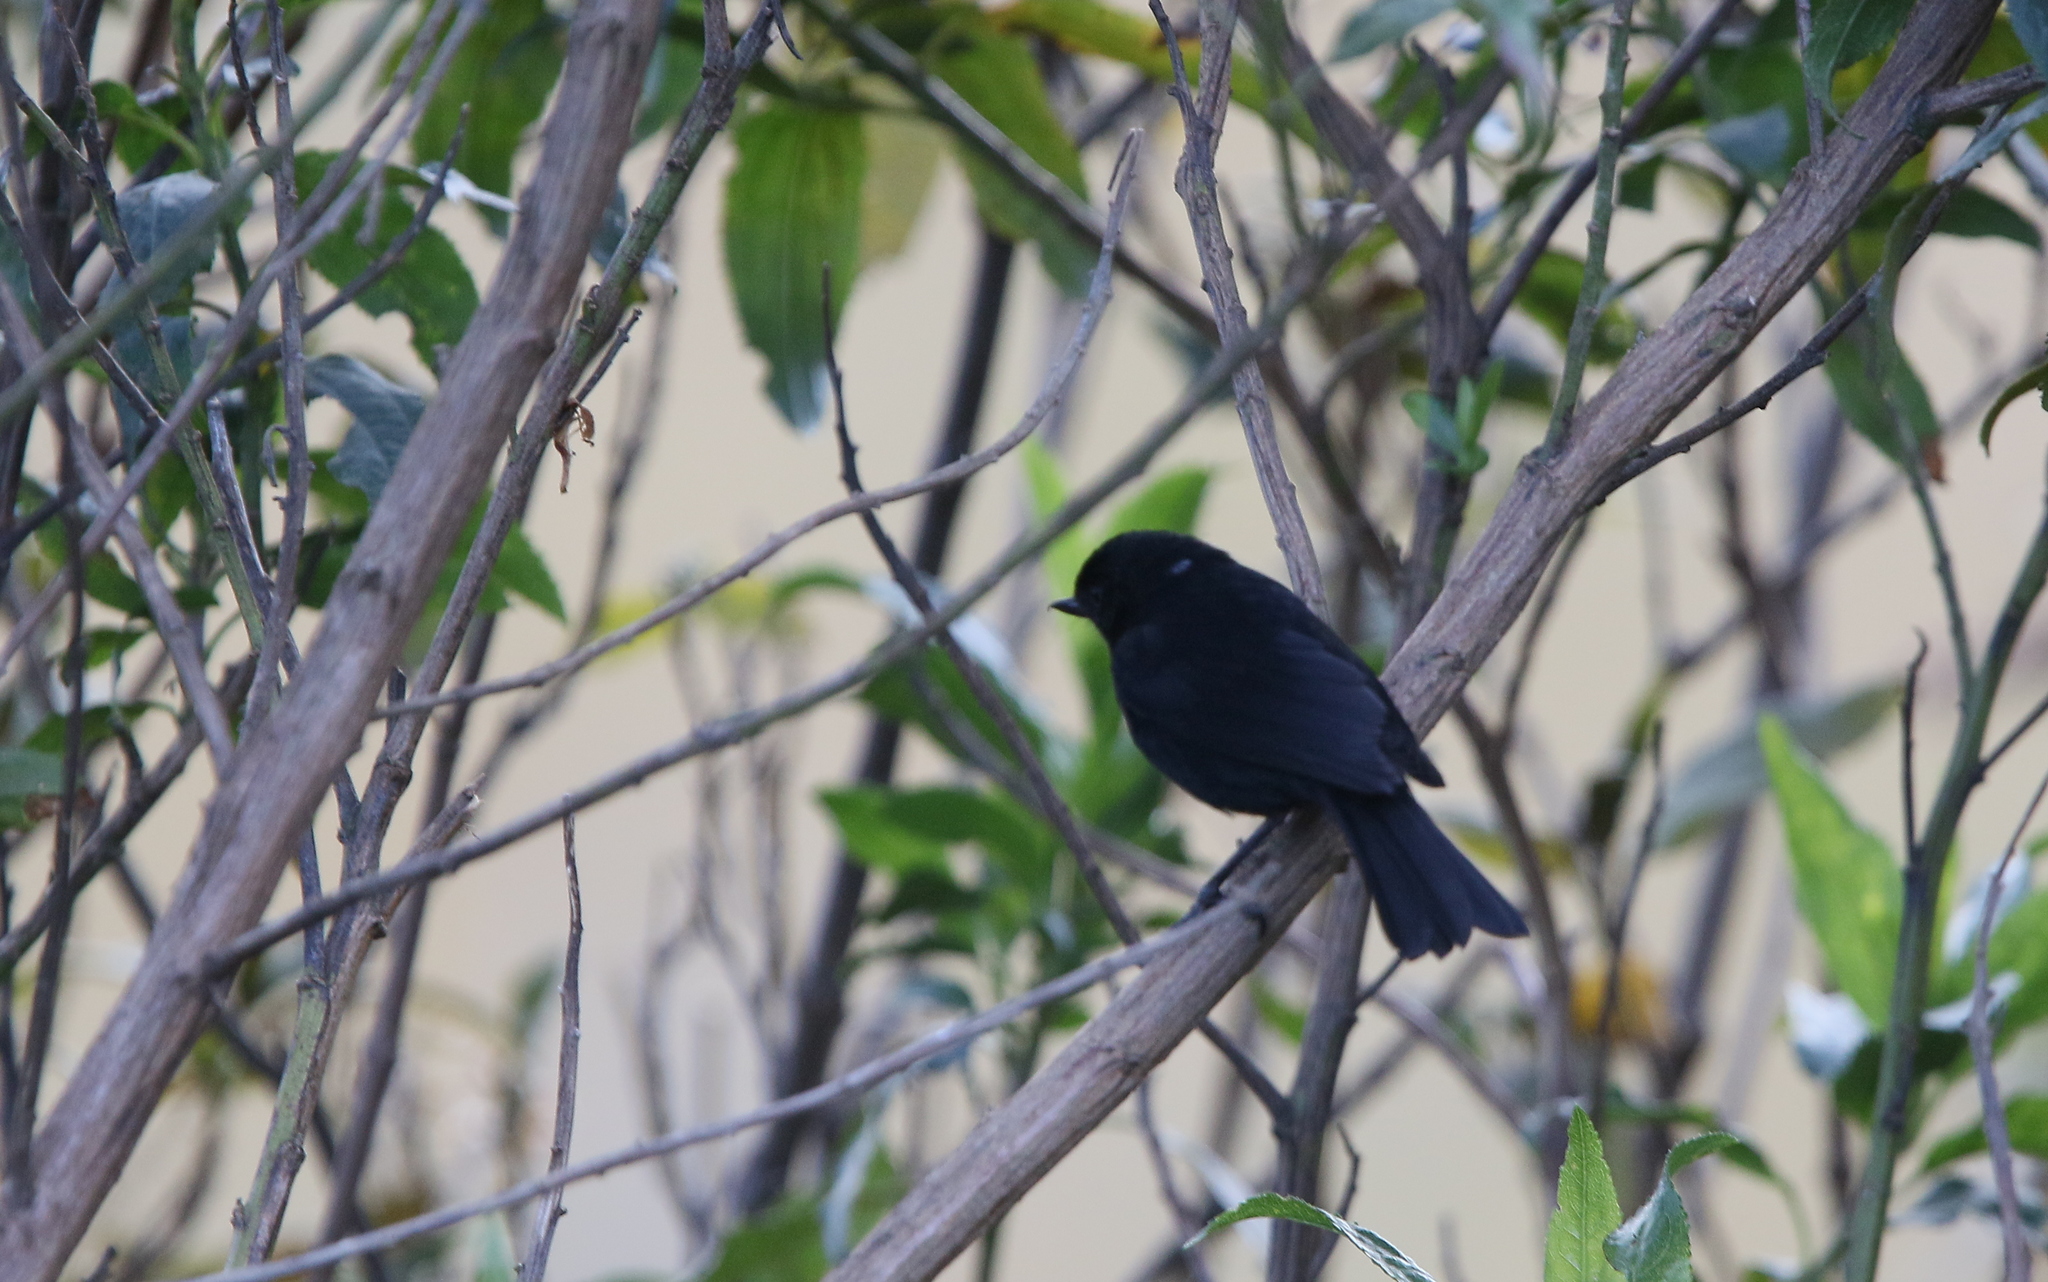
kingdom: Animalia
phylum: Chordata
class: Aves
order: Passeriformes
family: Thraupidae
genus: Diglossa
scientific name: Diglossa humeralis
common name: Black flowerpiercer
